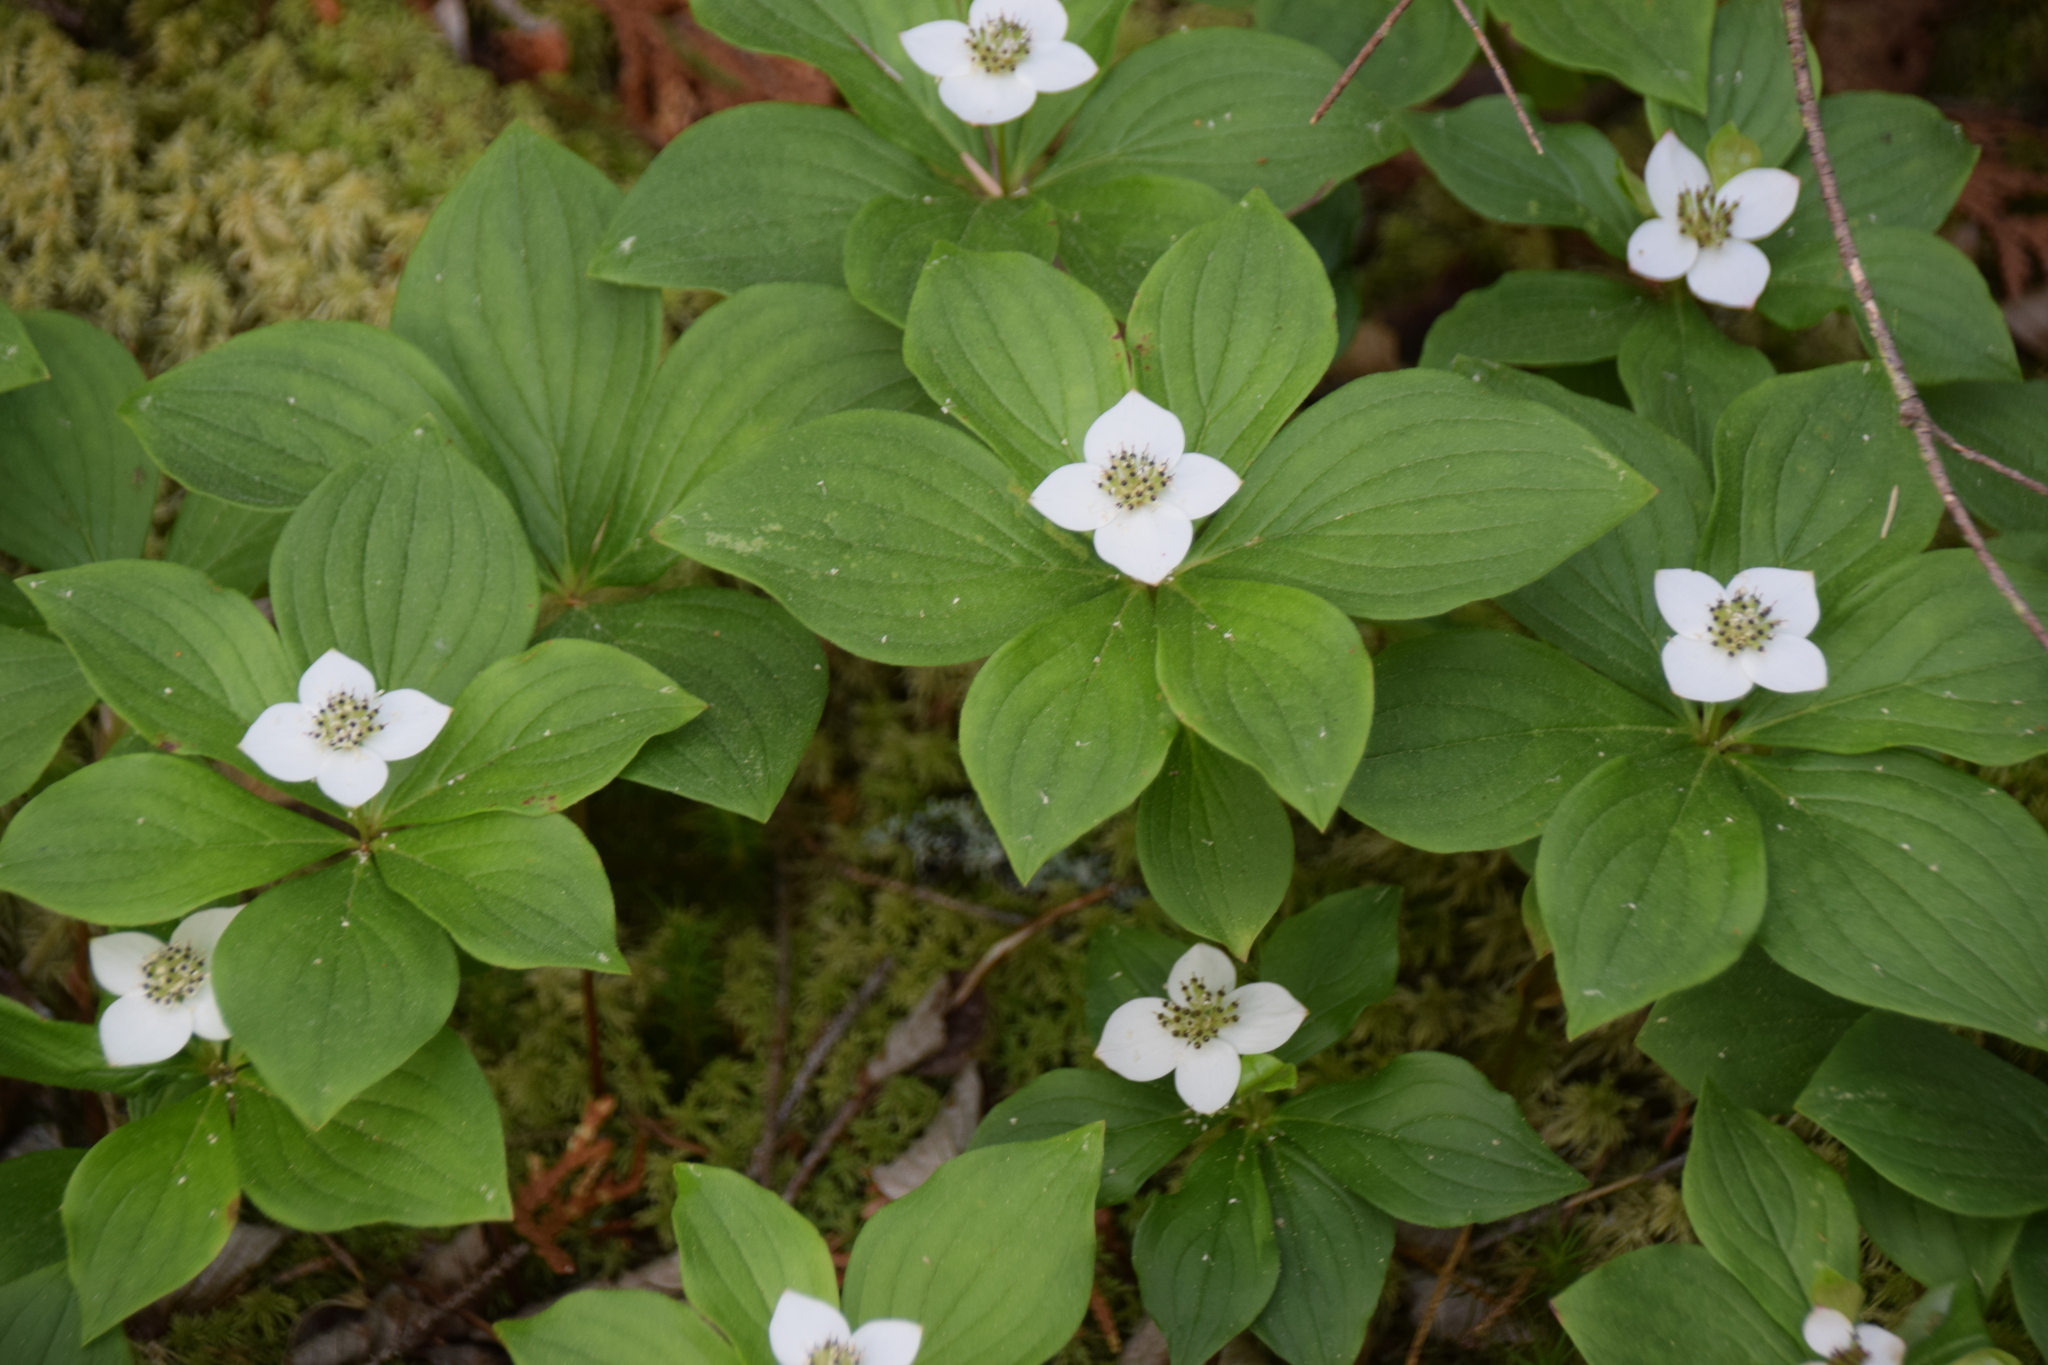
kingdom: Plantae
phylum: Tracheophyta
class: Magnoliopsida
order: Cornales
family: Cornaceae
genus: Cornus
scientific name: Cornus canadensis
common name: Creeping dogwood
